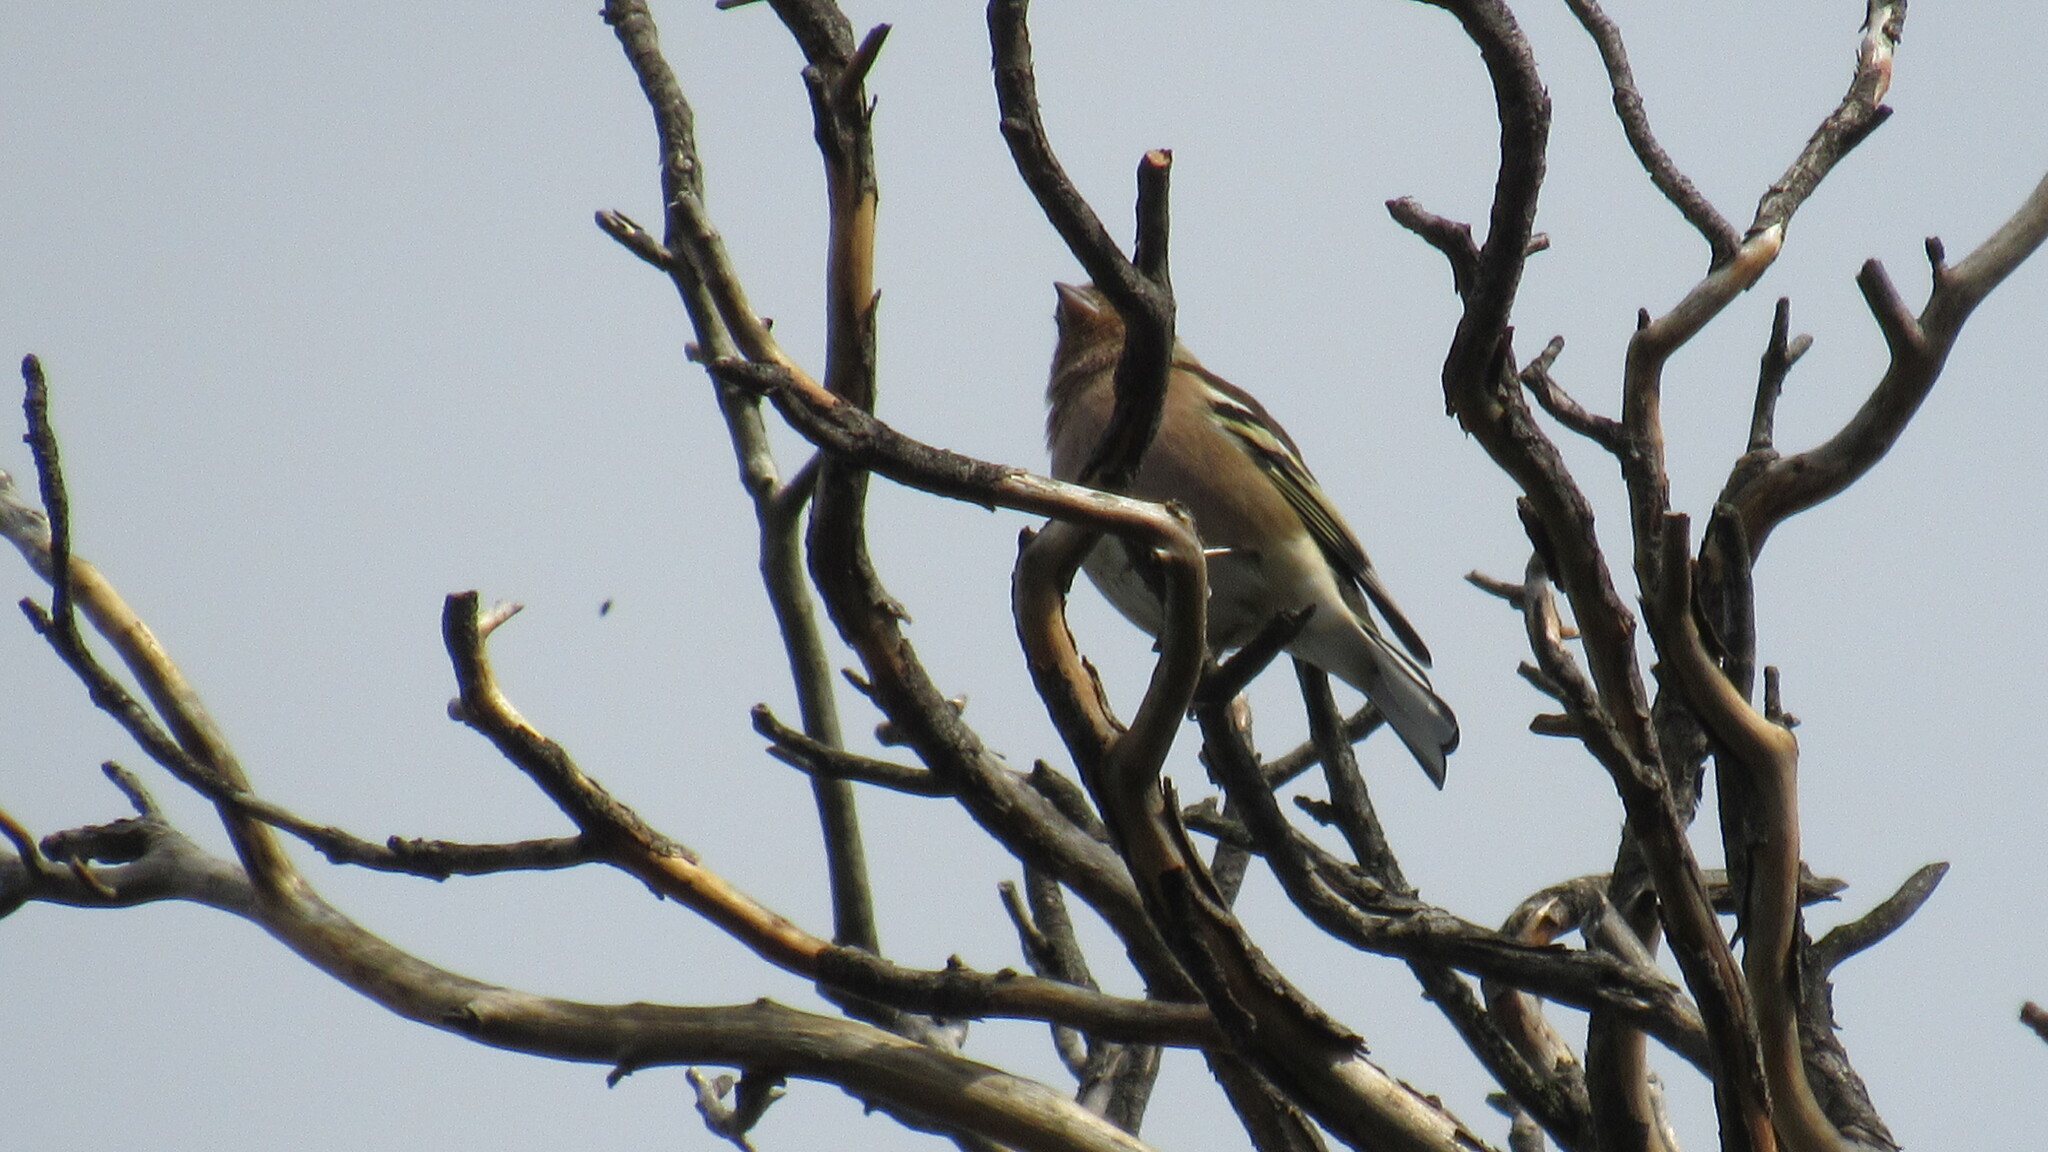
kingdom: Animalia
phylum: Chordata
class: Aves
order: Passeriformes
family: Fringillidae
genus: Fringilla
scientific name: Fringilla coelebs
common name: Common chaffinch
